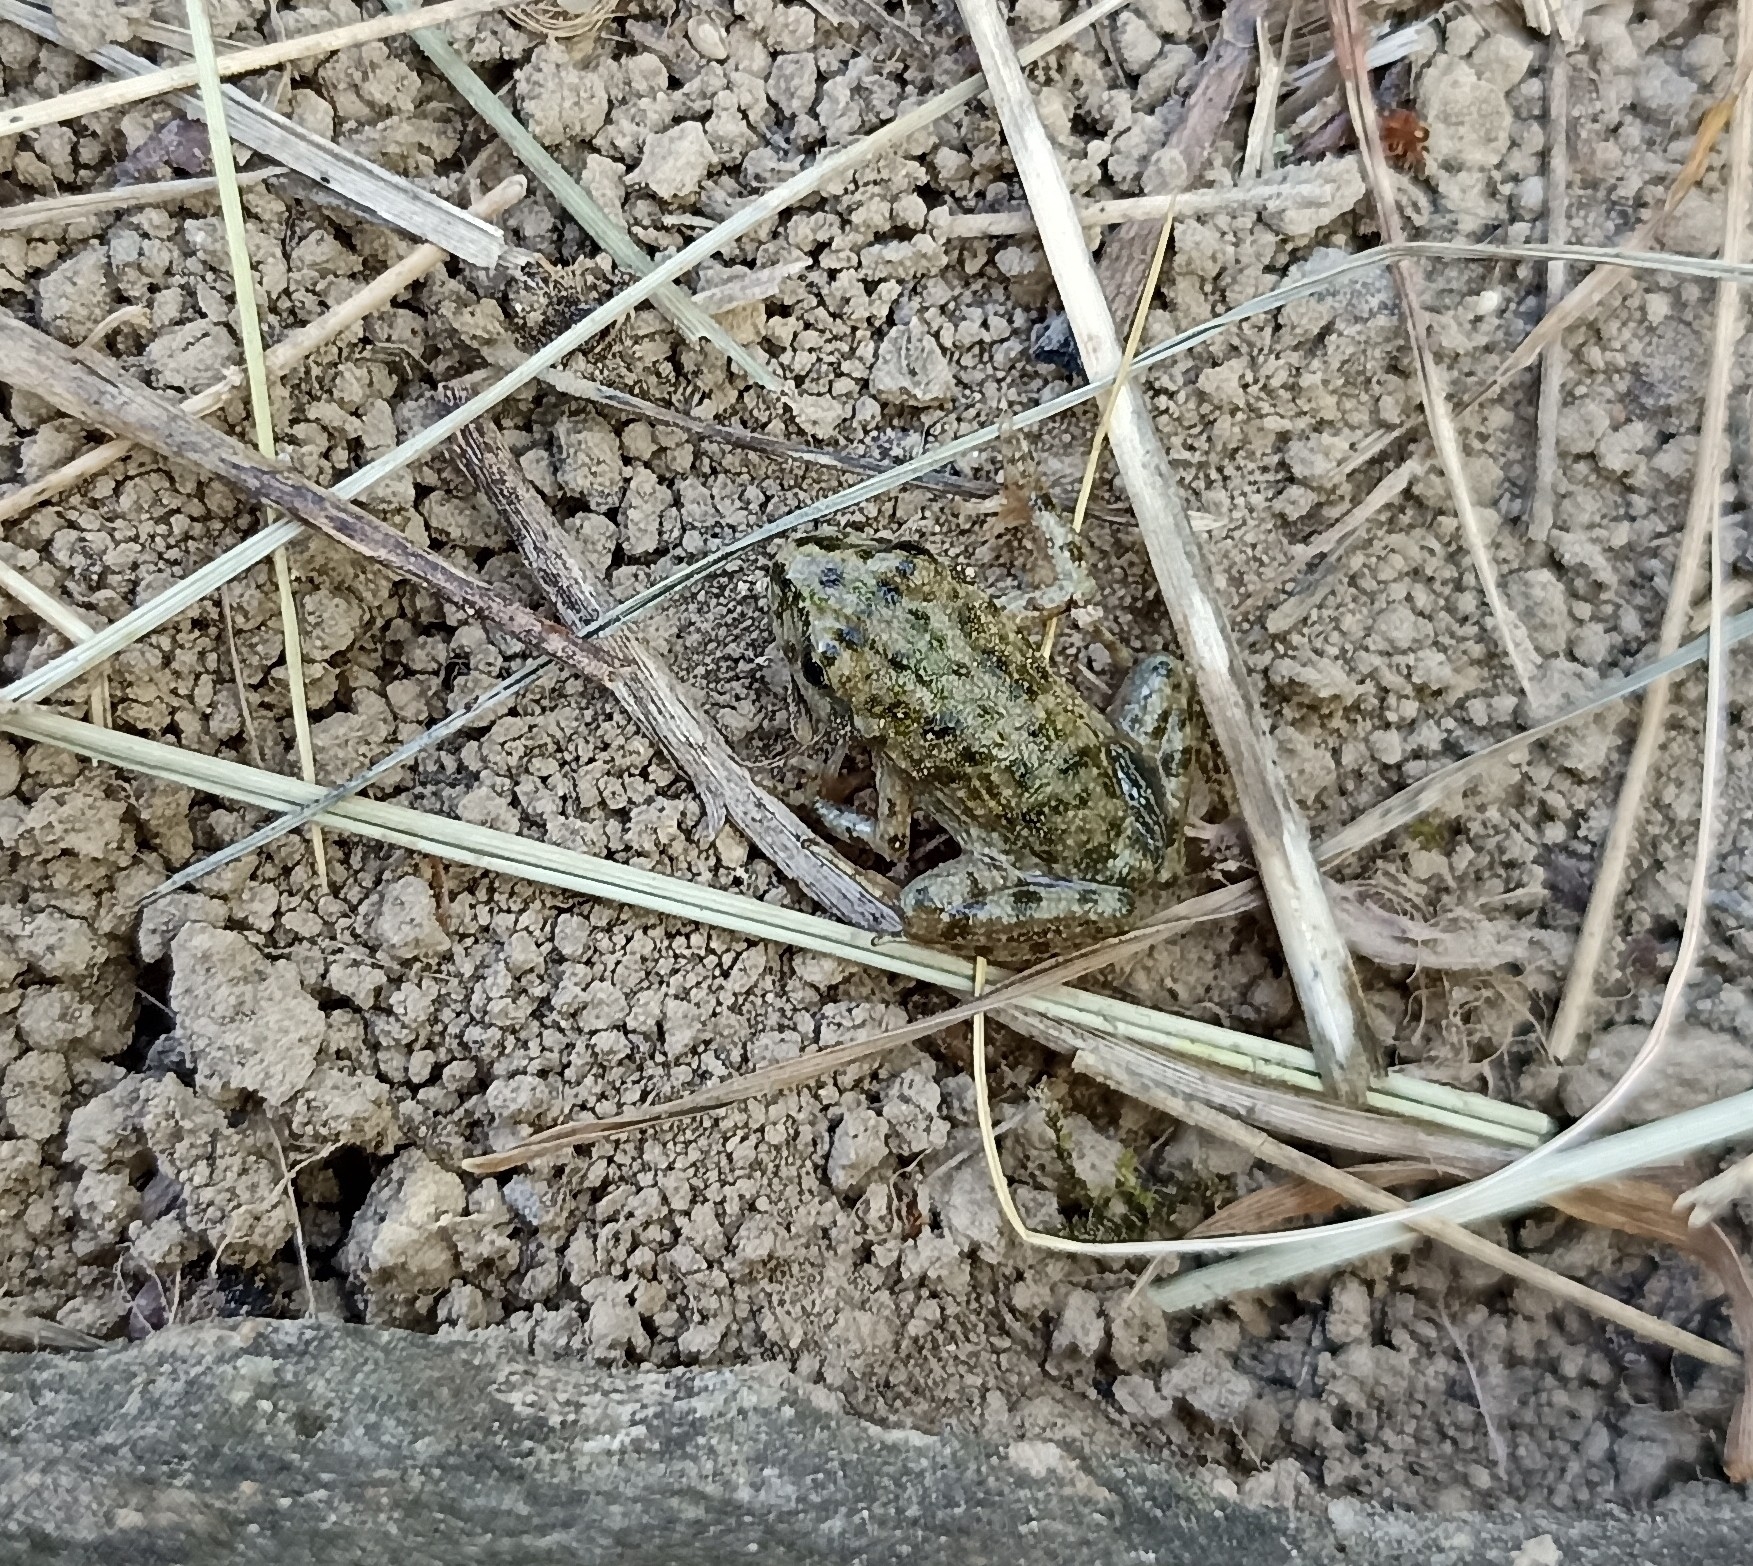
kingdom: Animalia
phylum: Chordata
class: Amphibia
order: Anura
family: Pelodytidae
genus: Pelodytes
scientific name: Pelodytes punctatus
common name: Parsley frog
